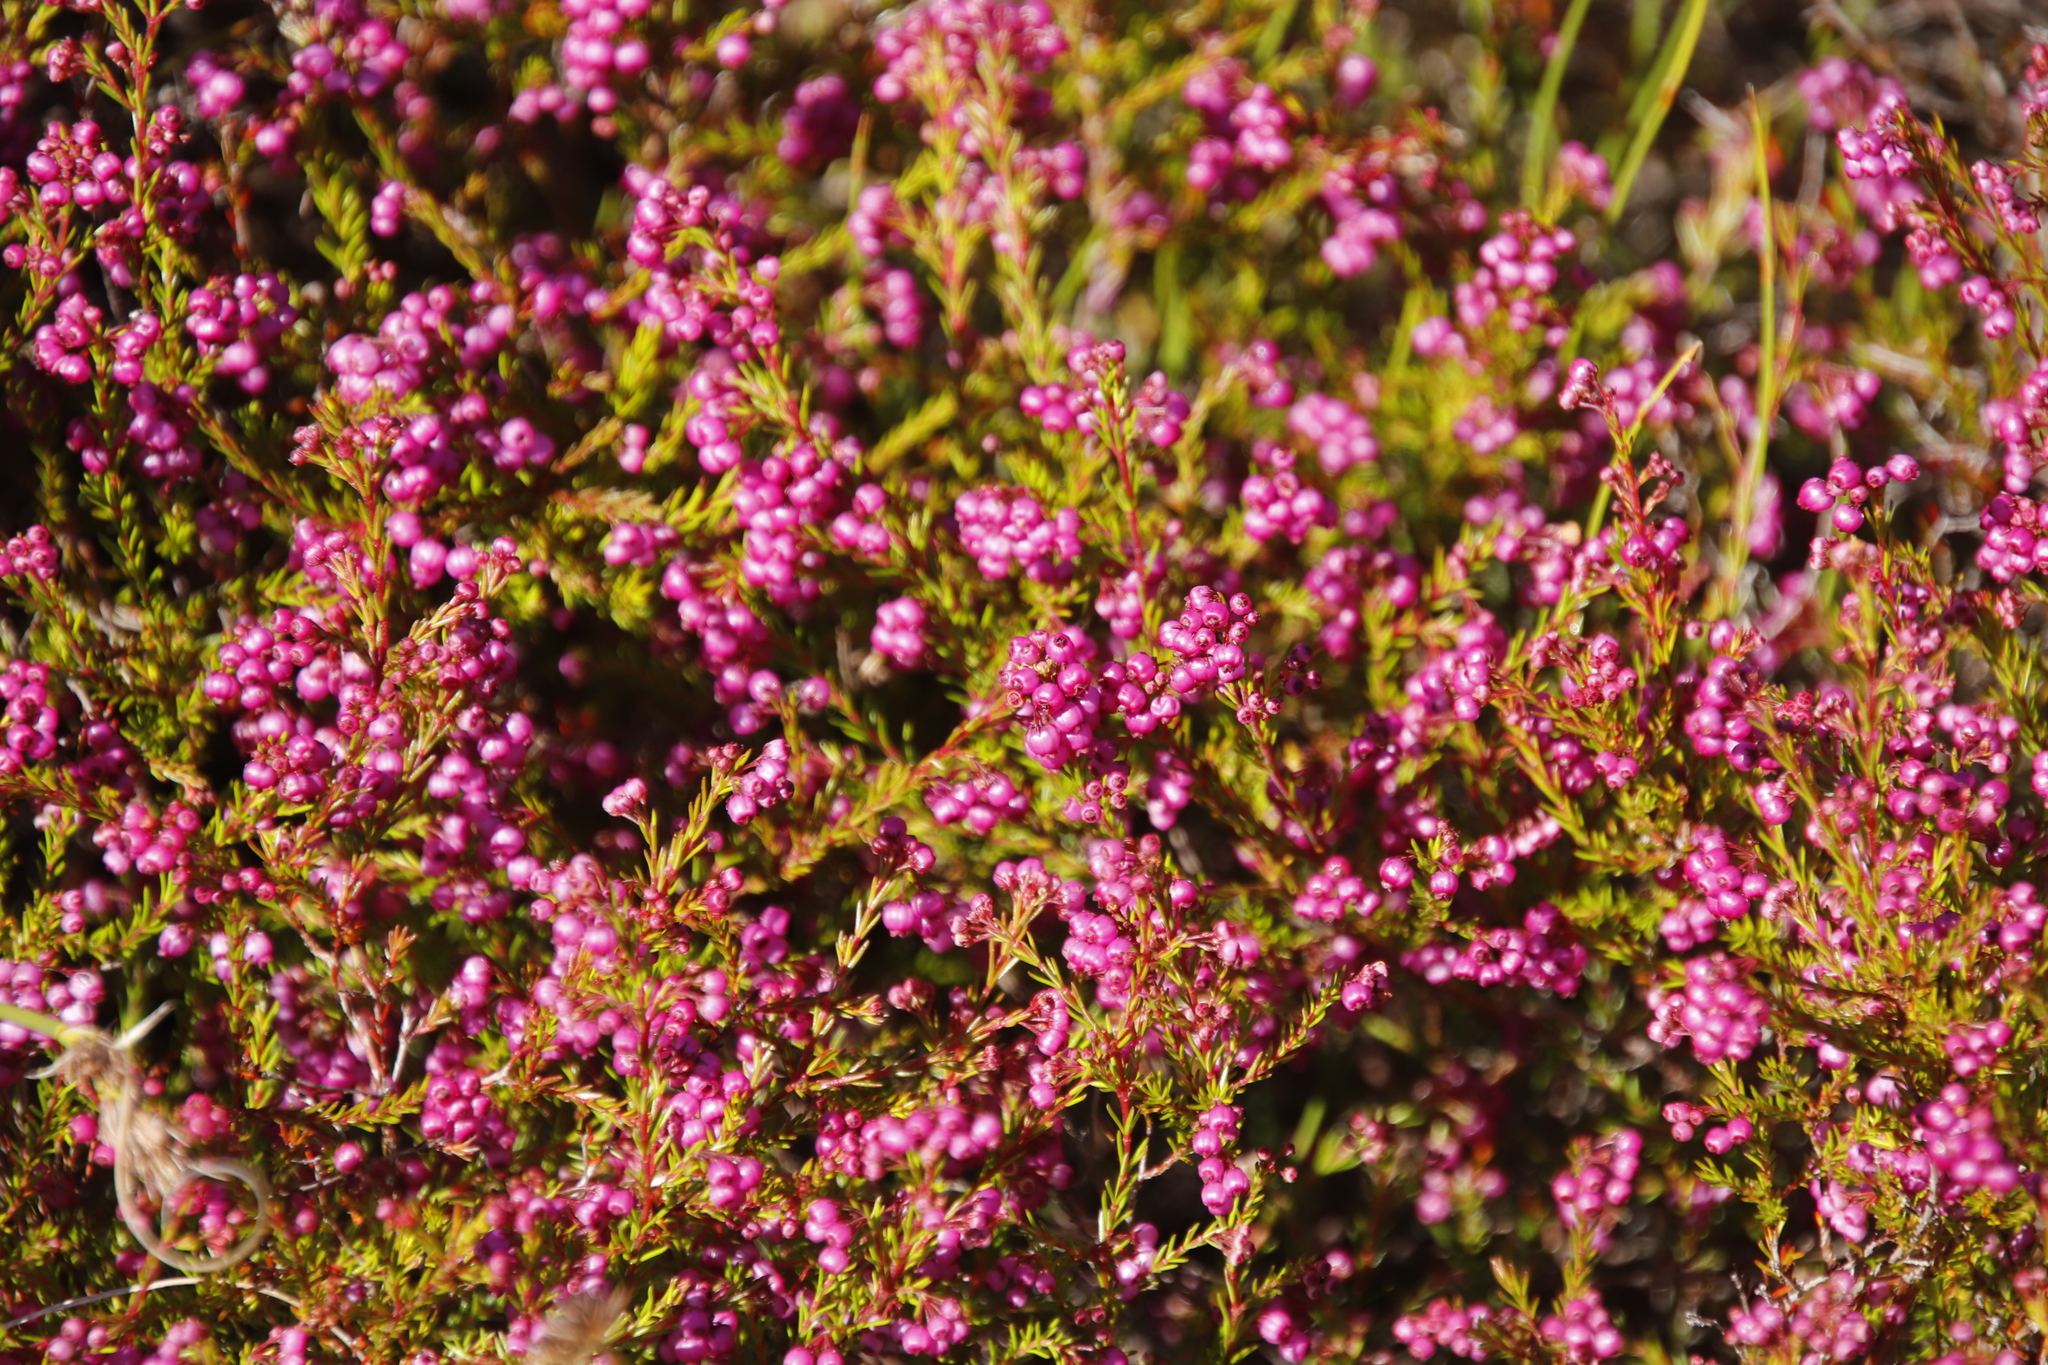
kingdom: Plantae
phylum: Tracheophyta
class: Magnoliopsida
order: Ericales
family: Ericaceae
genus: Erica
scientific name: Erica multumbellifera
